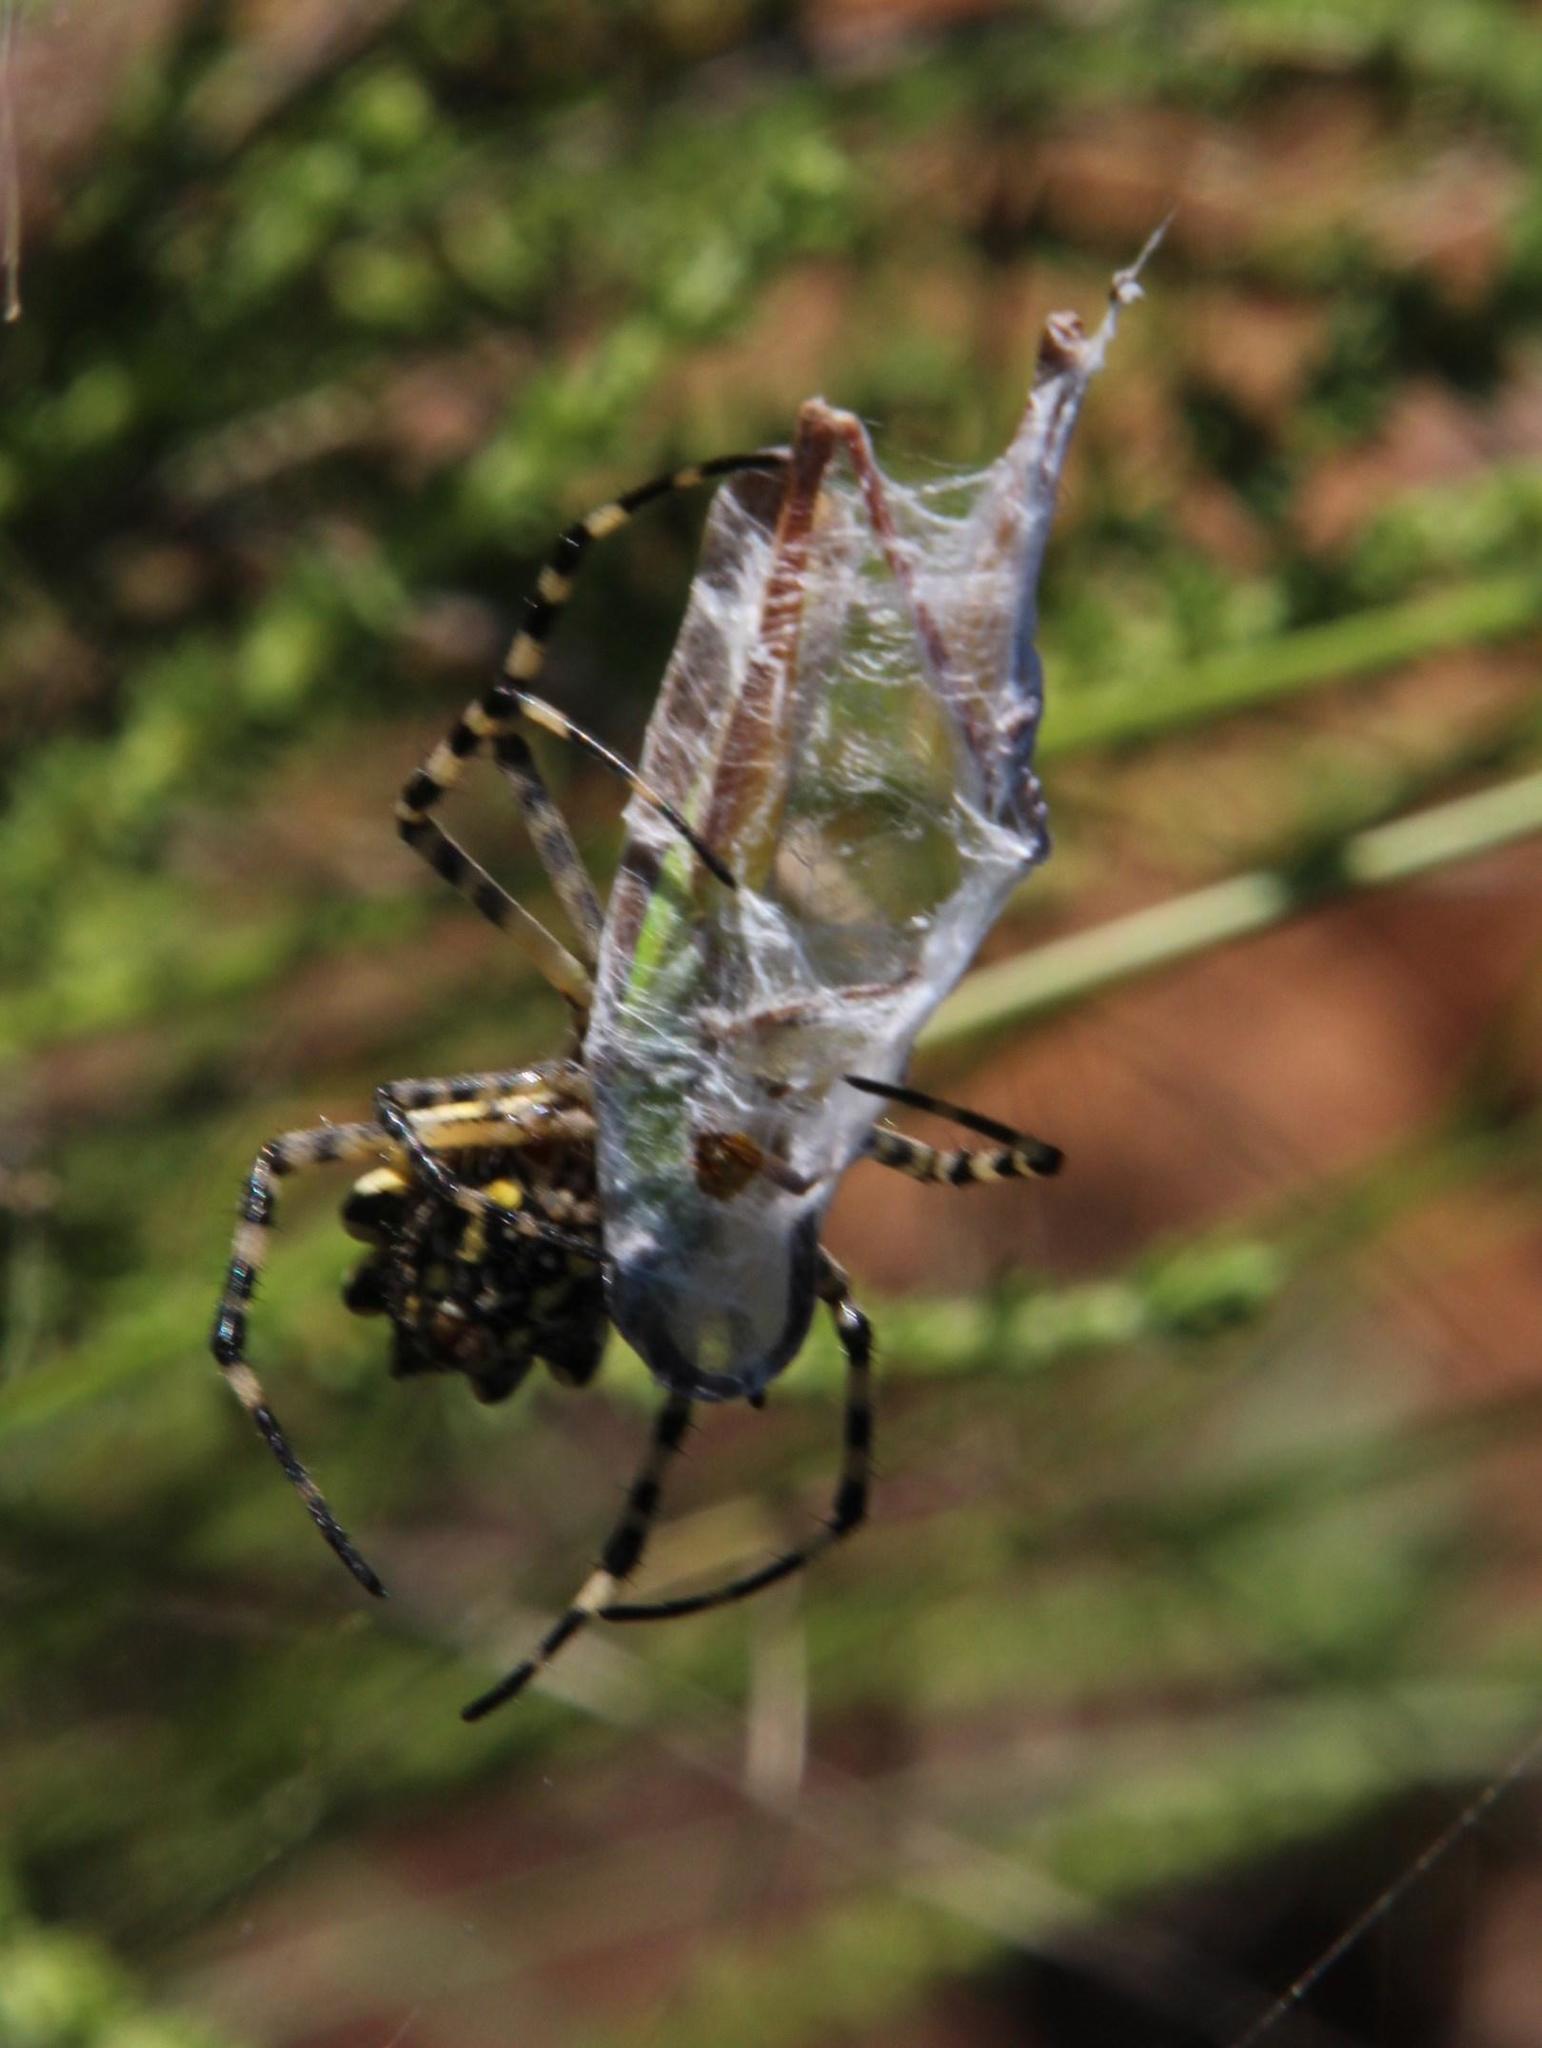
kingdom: Animalia
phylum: Arthropoda
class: Arachnida
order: Araneae
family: Araneidae
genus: Argiope
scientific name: Argiope australis
